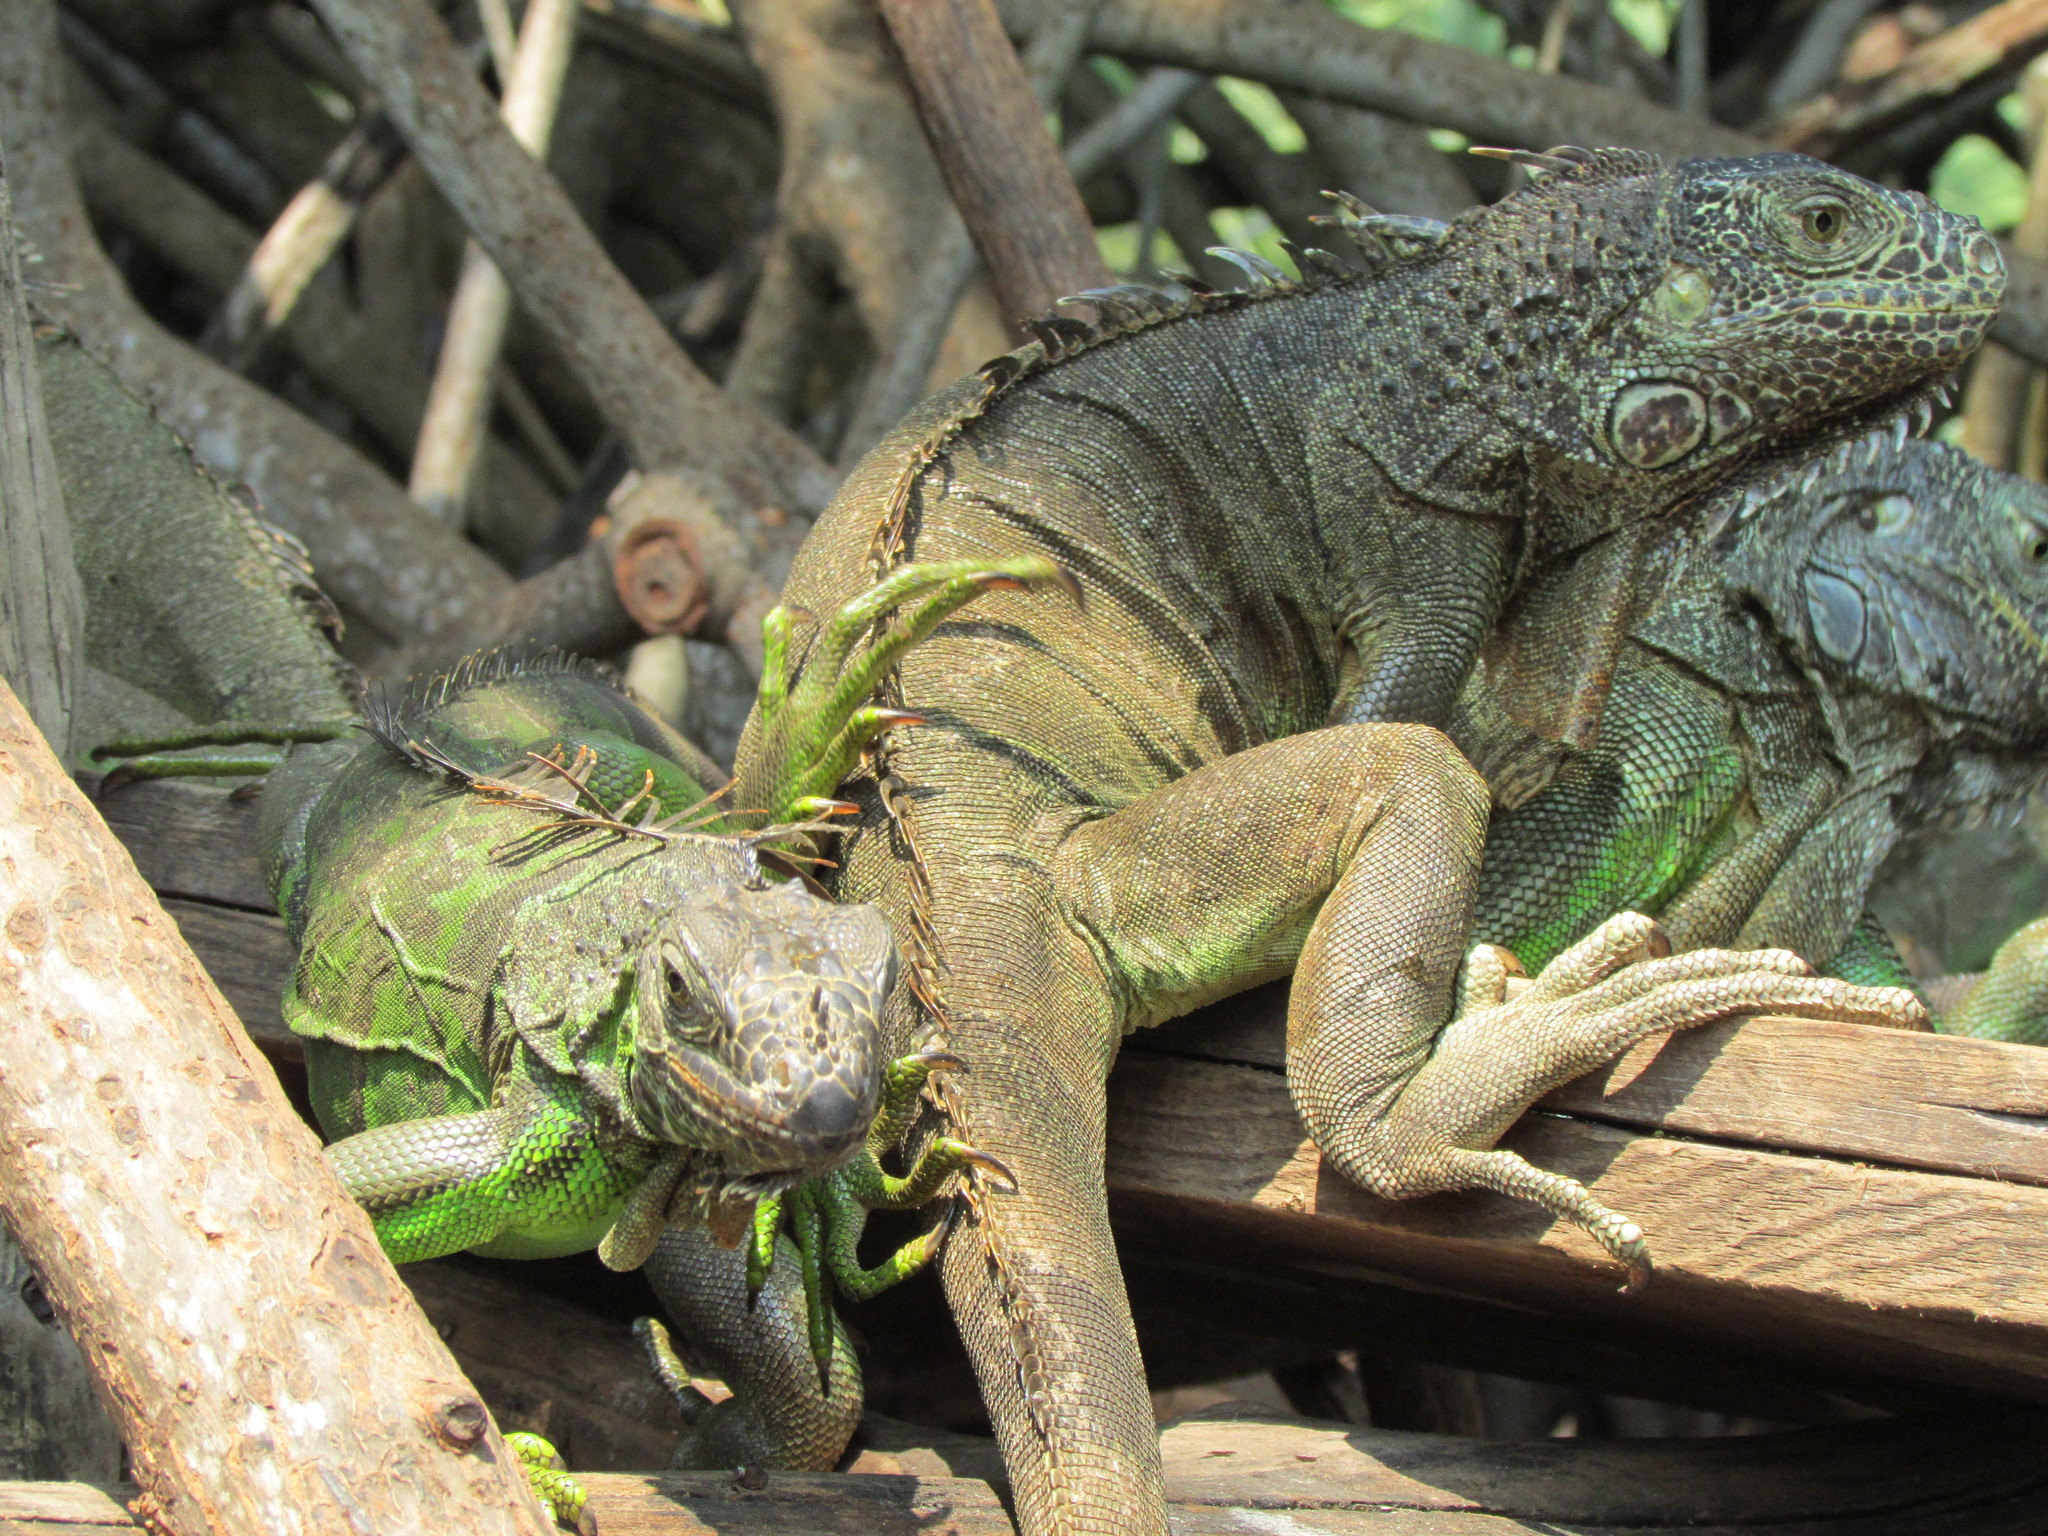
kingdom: Animalia
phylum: Chordata
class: Squamata
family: Iguanidae
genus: Iguana
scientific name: Iguana iguana
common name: Green iguana
